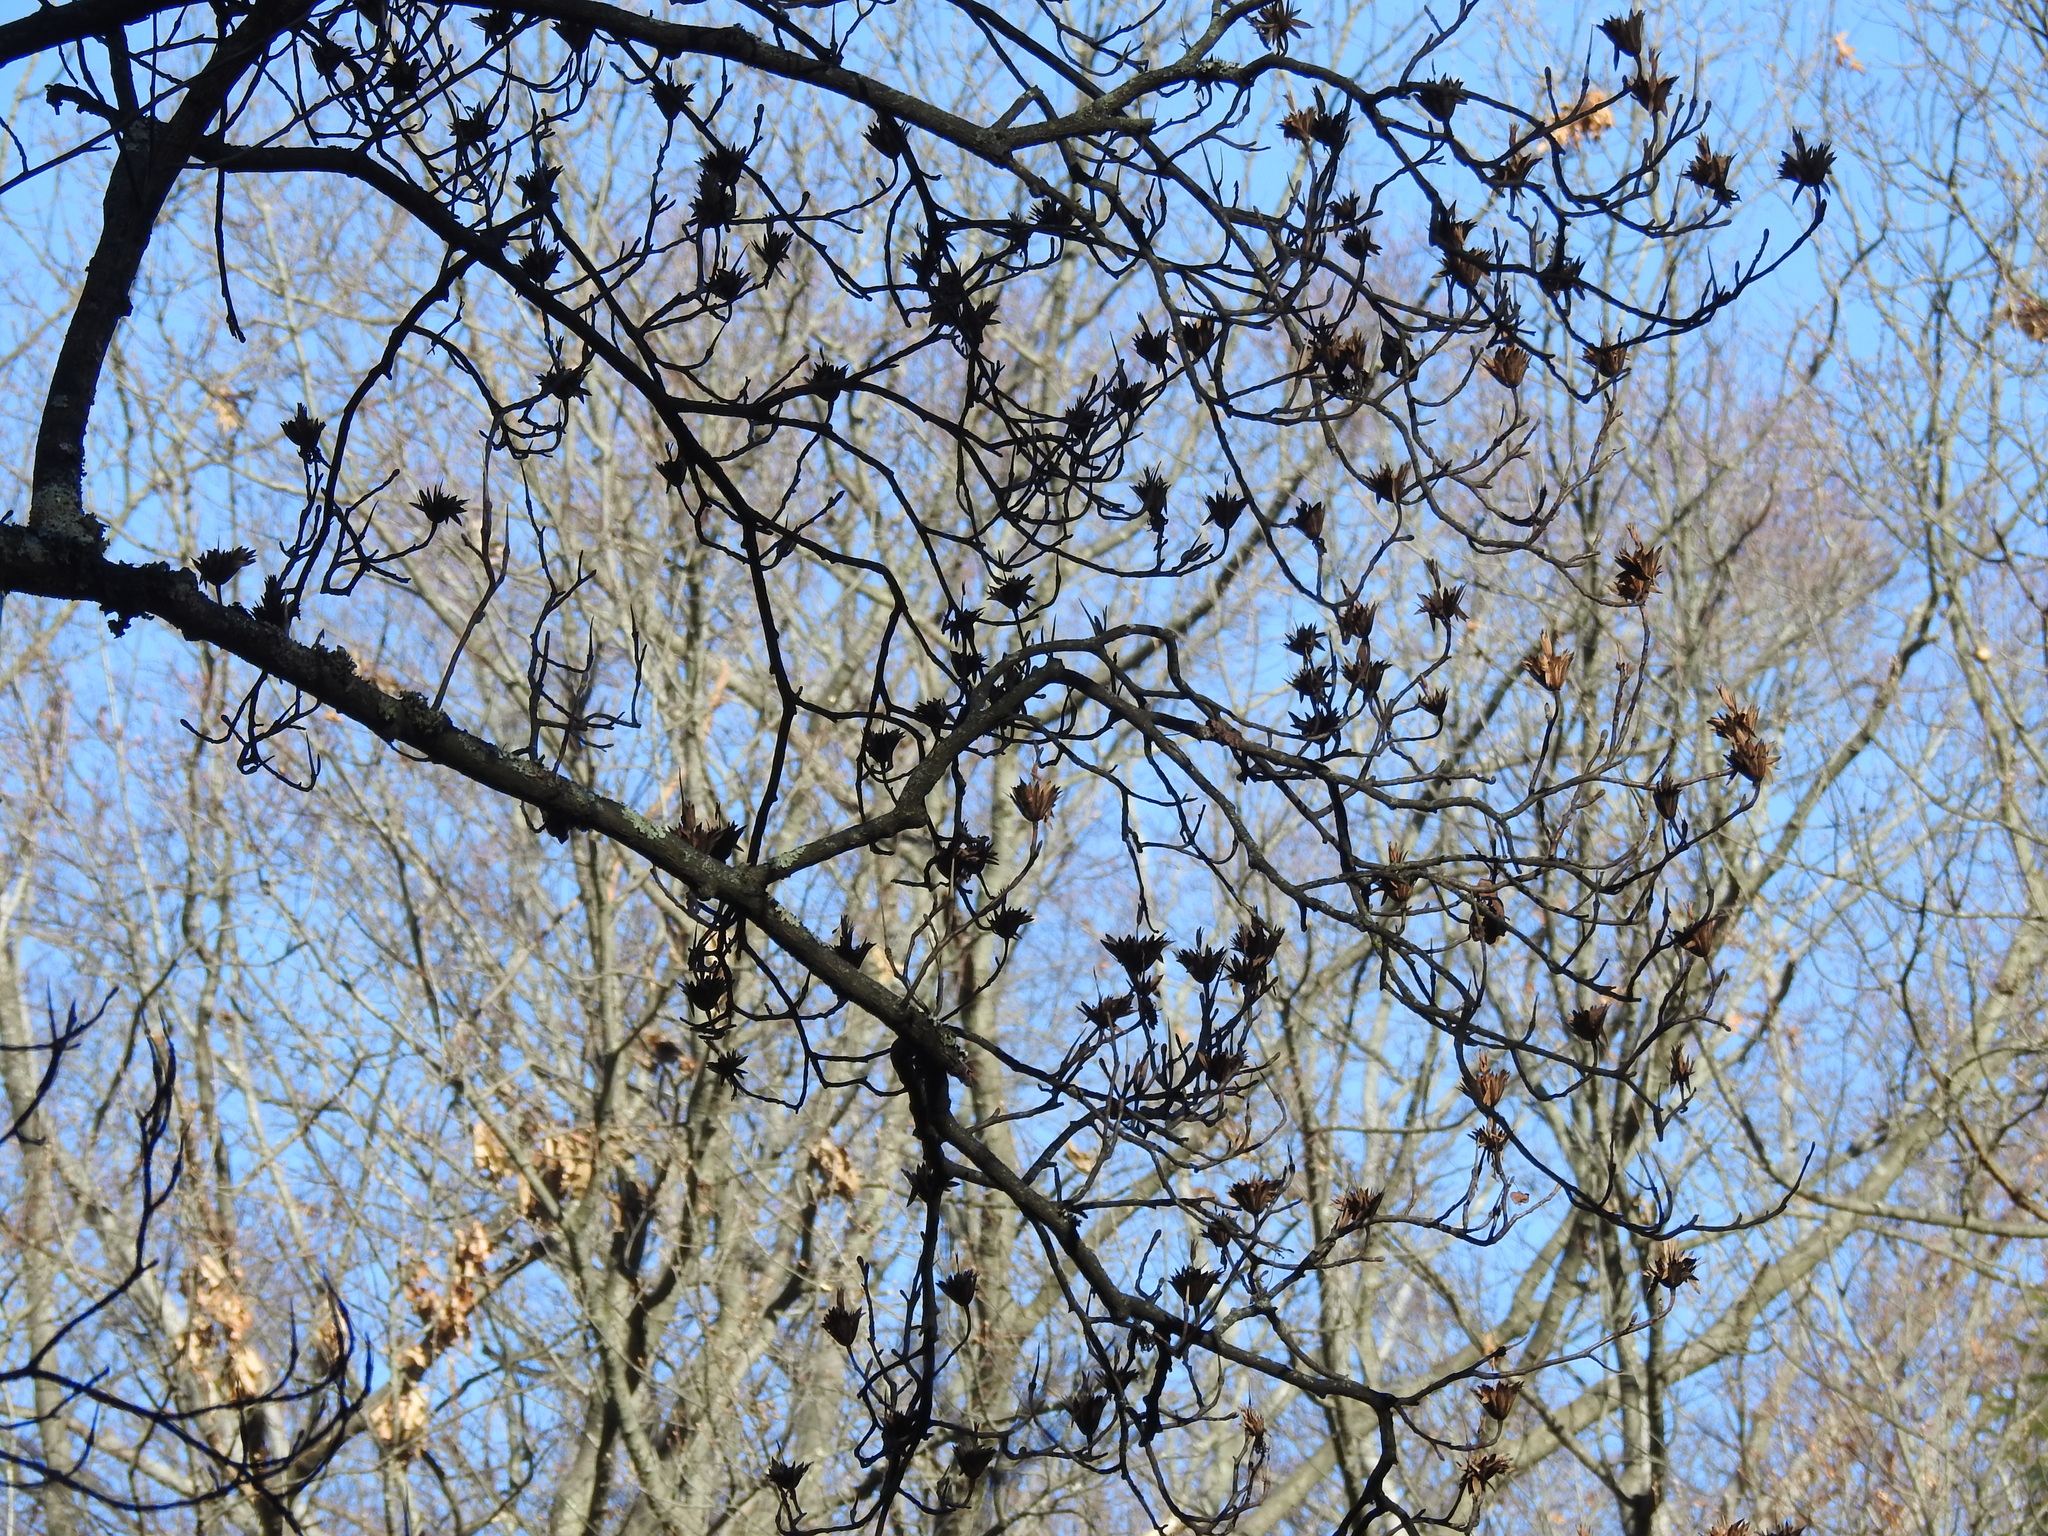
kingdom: Plantae
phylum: Tracheophyta
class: Magnoliopsida
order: Magnoliales
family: Magnoliaceae
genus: Liriodendron
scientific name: Liriodendron tulipifera
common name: Tulip tree
